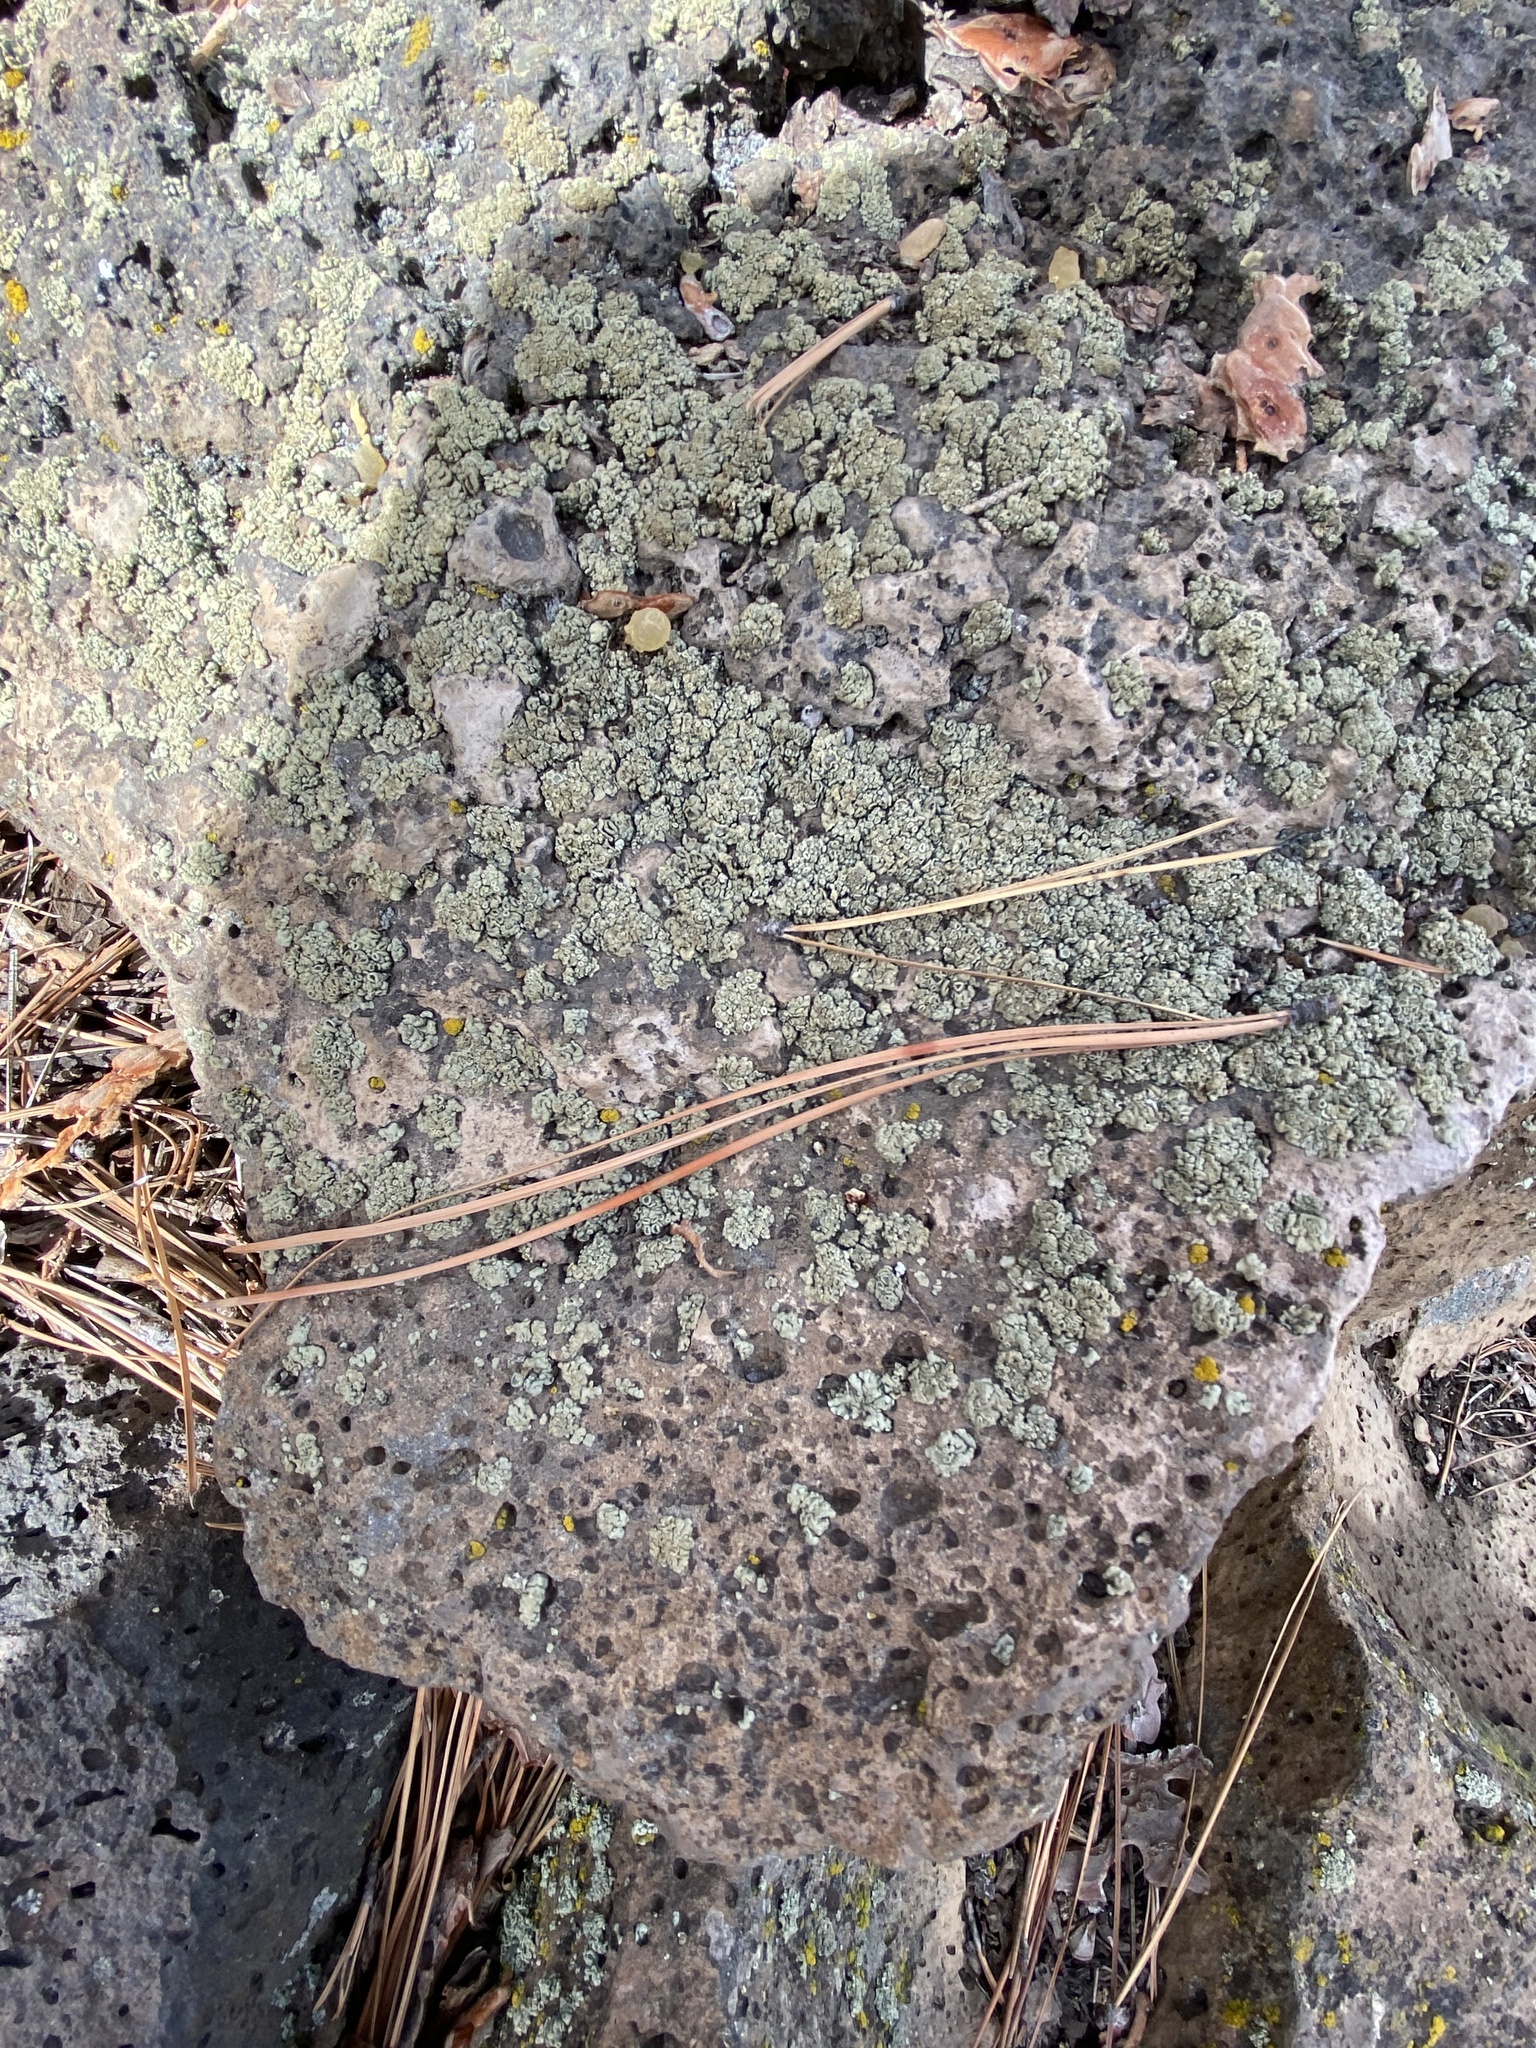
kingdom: Plantae
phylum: Tracheophyta
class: Pinopsida
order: Pinales
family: Pinaceae
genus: Pinus
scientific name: Pinus ponderosa
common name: Western yellow-pine
